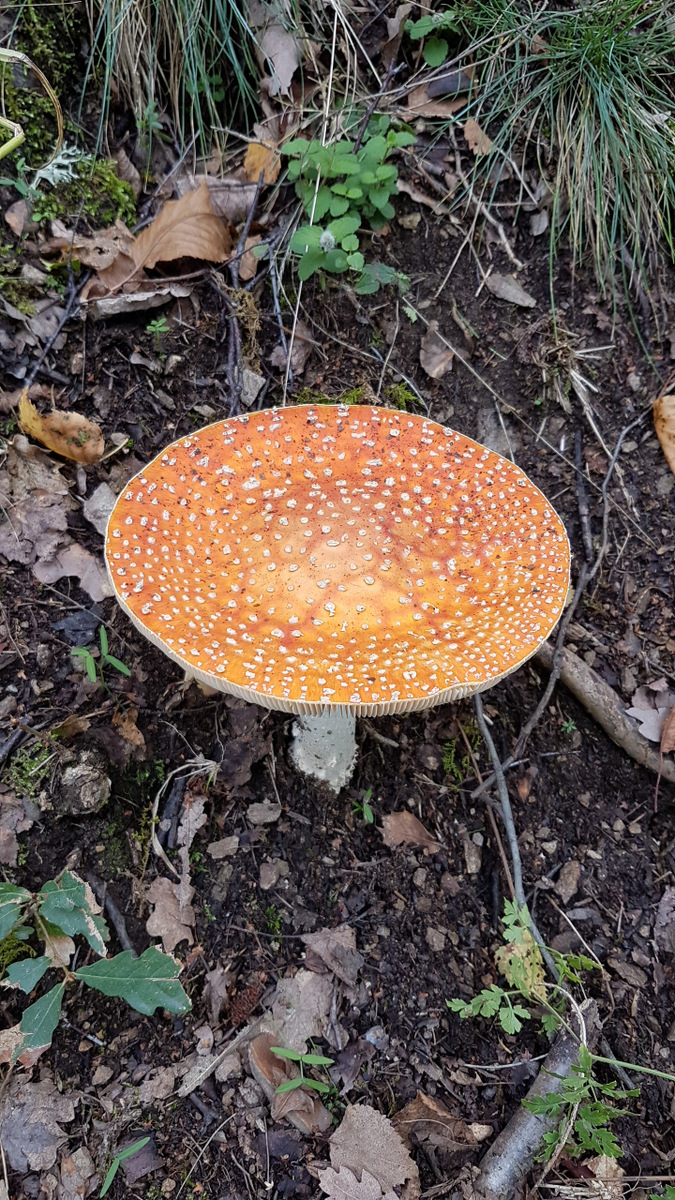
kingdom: Fungi
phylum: Basidiomycota
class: Agaricomycetes
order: Agaricales
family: Amanitaceae
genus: Amanita
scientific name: Amanita muscaria
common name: Fly agaric
